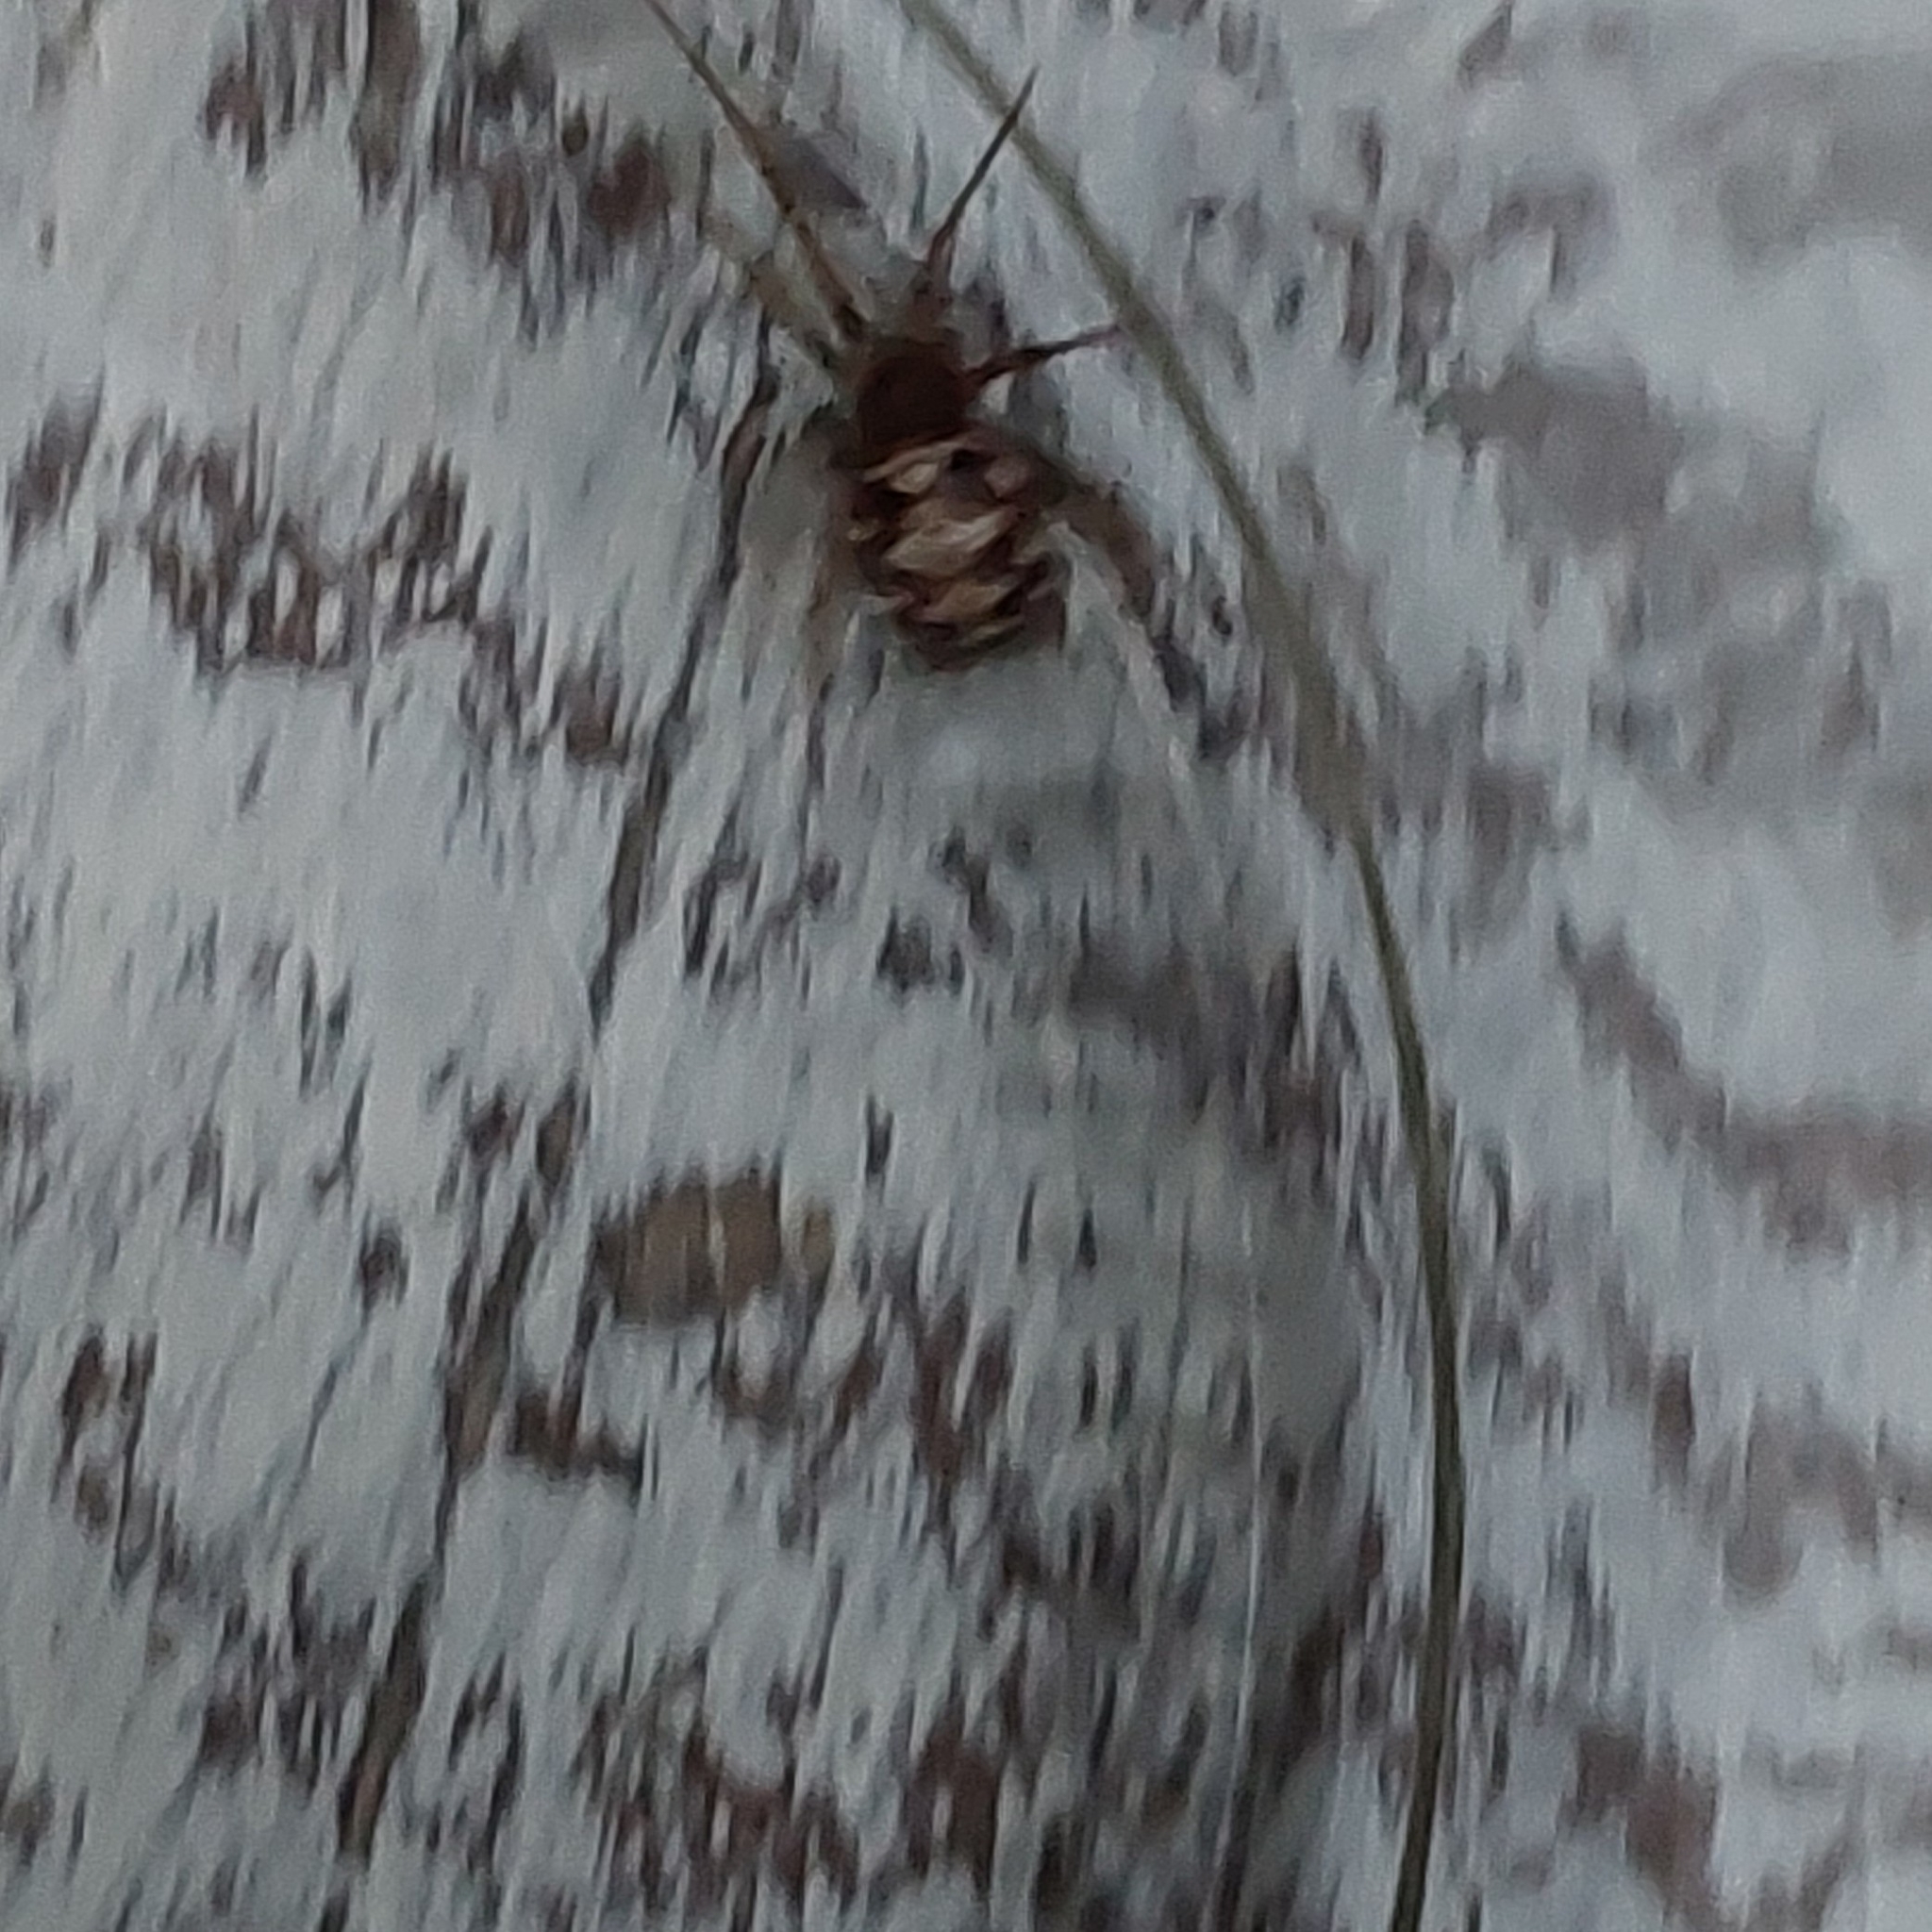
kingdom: Animalia
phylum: Arthropoda
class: Arachnida
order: Araneae
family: Theridiidae
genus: Steatoda
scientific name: Steatoda triangulosa
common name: Triangulate bud spider
